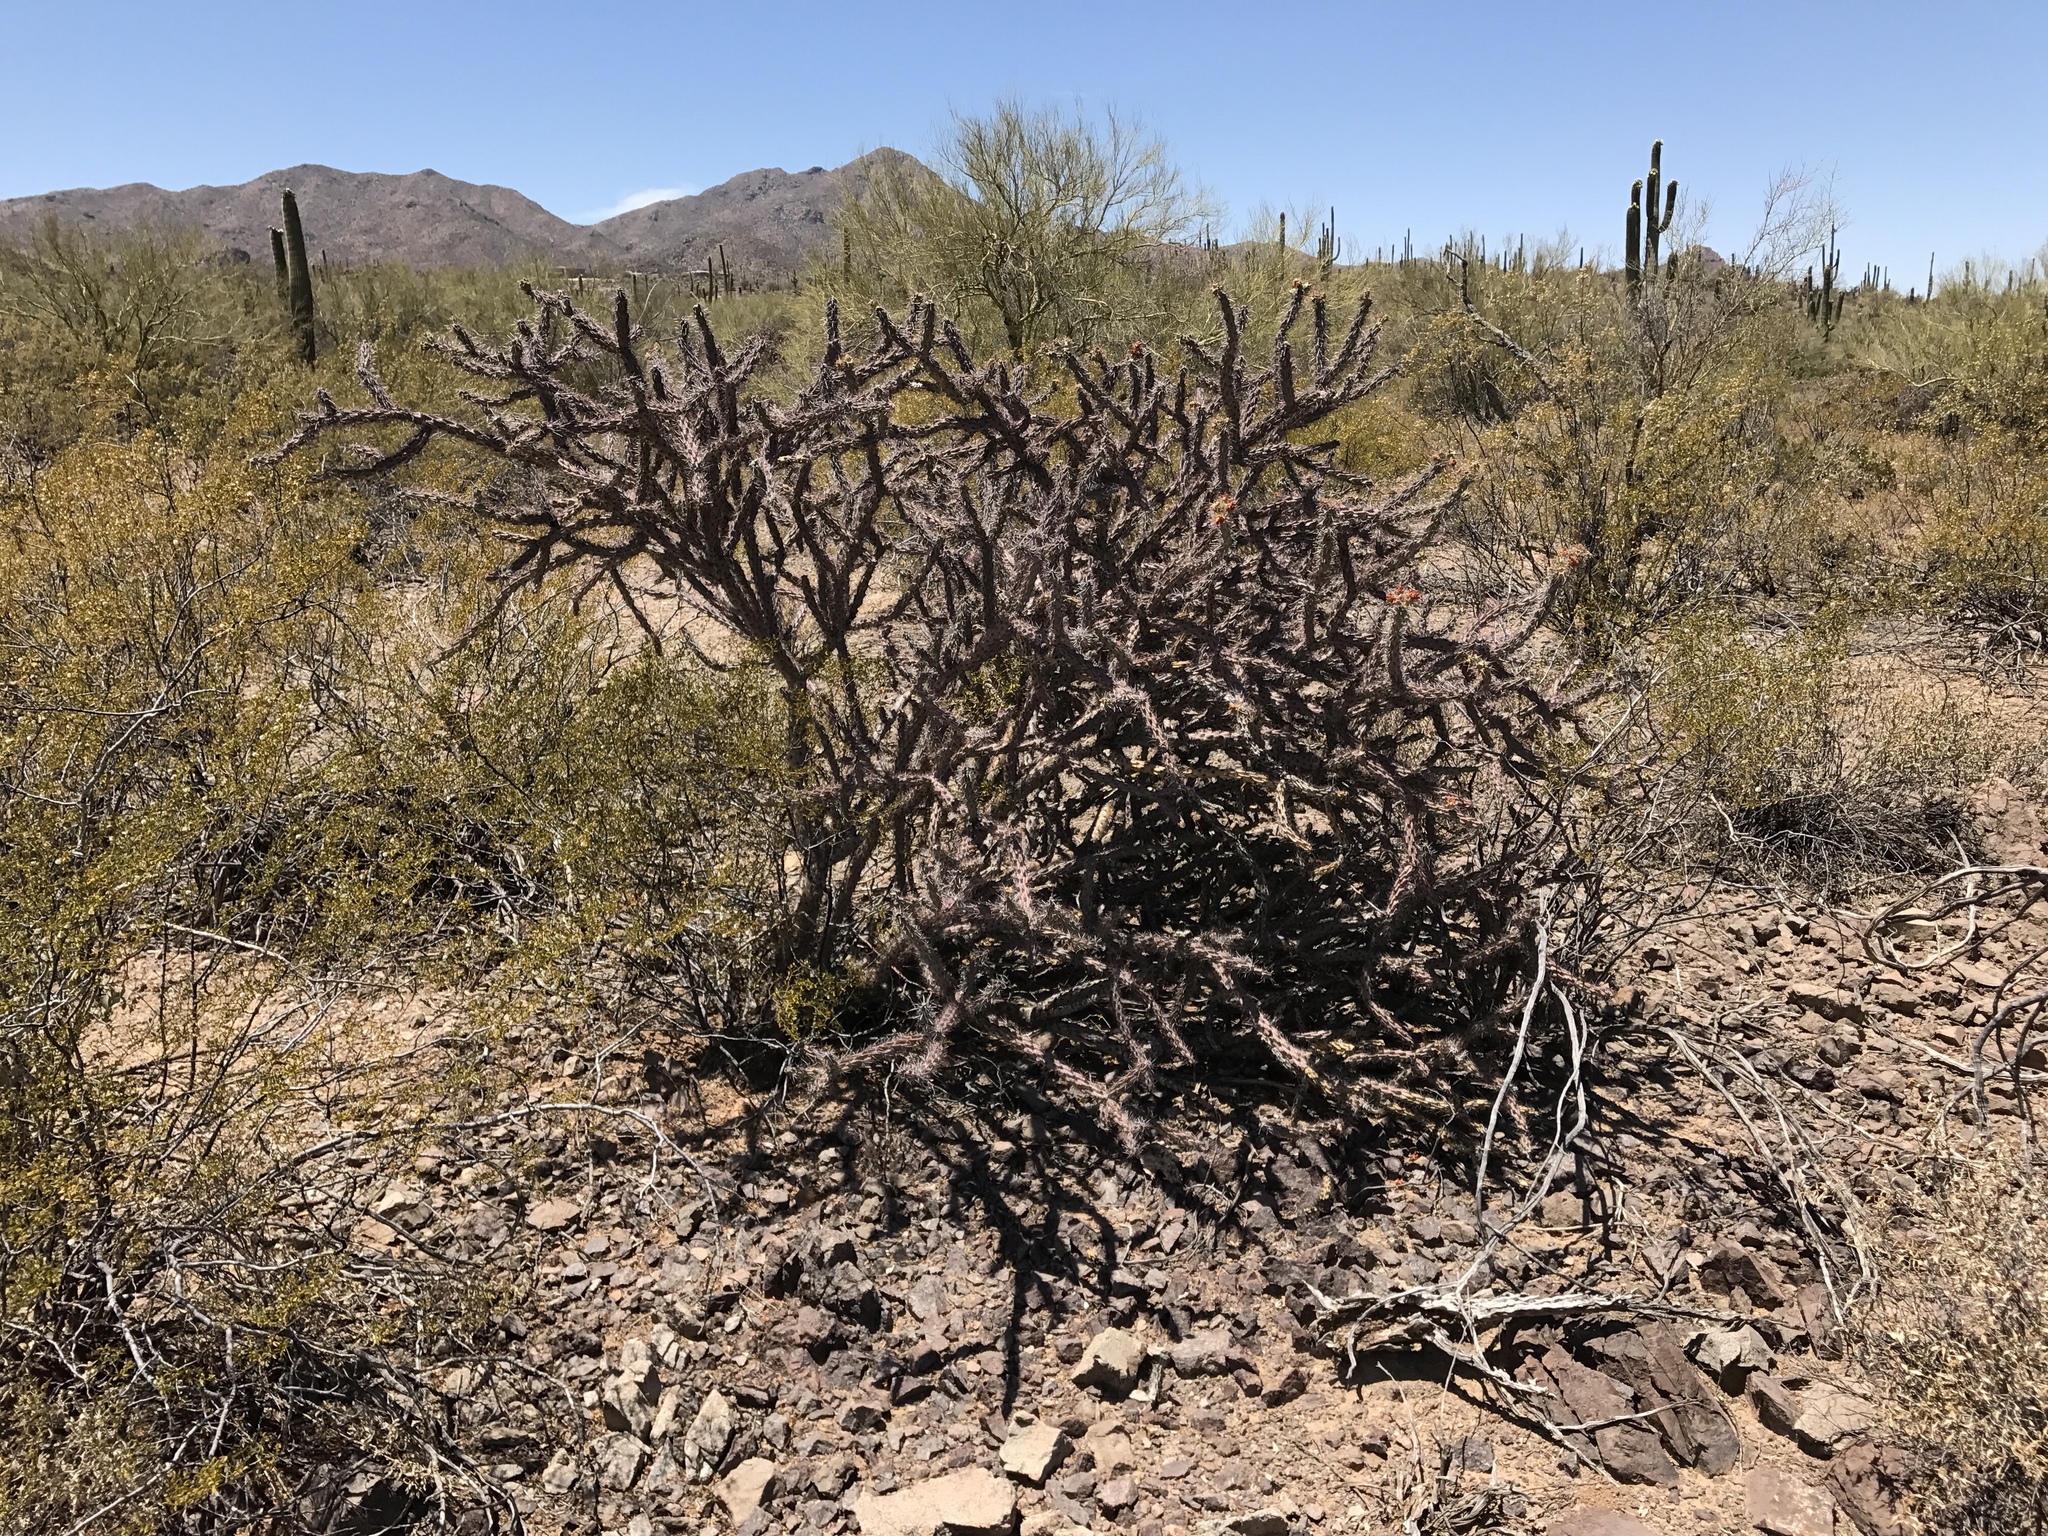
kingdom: Plantae
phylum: Tracheophyta
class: Magnoliopsida
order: Caryophyllales
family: Cactaceae
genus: Cylindropuntia
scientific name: Cylindropuntia thurberi
